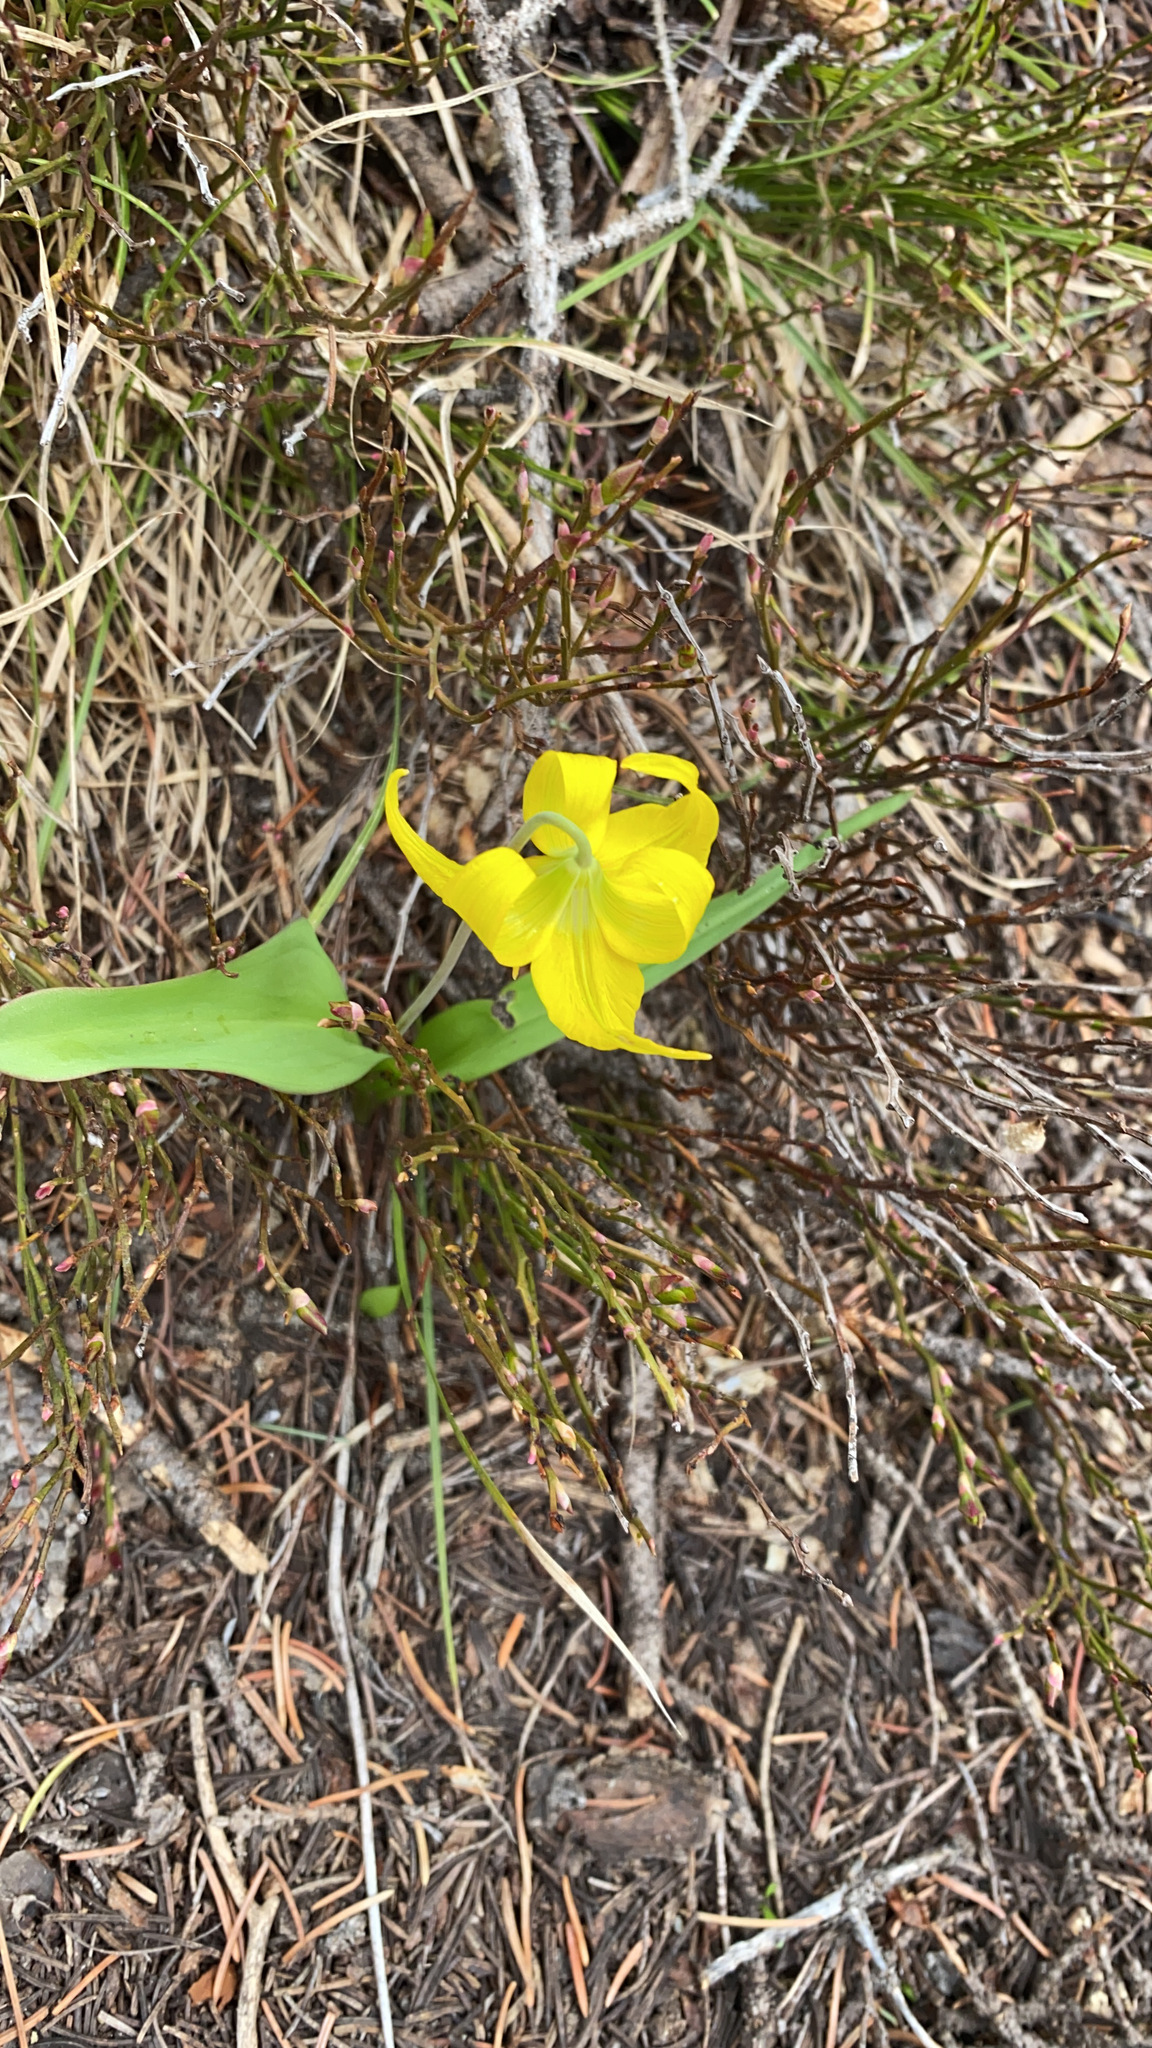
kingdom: Plantae
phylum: Tracheophyta
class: Liliopsida
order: Liliales
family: Liliaceae
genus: Erythronium
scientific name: Erythronium grandiflorum
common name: Avalanche-lily
